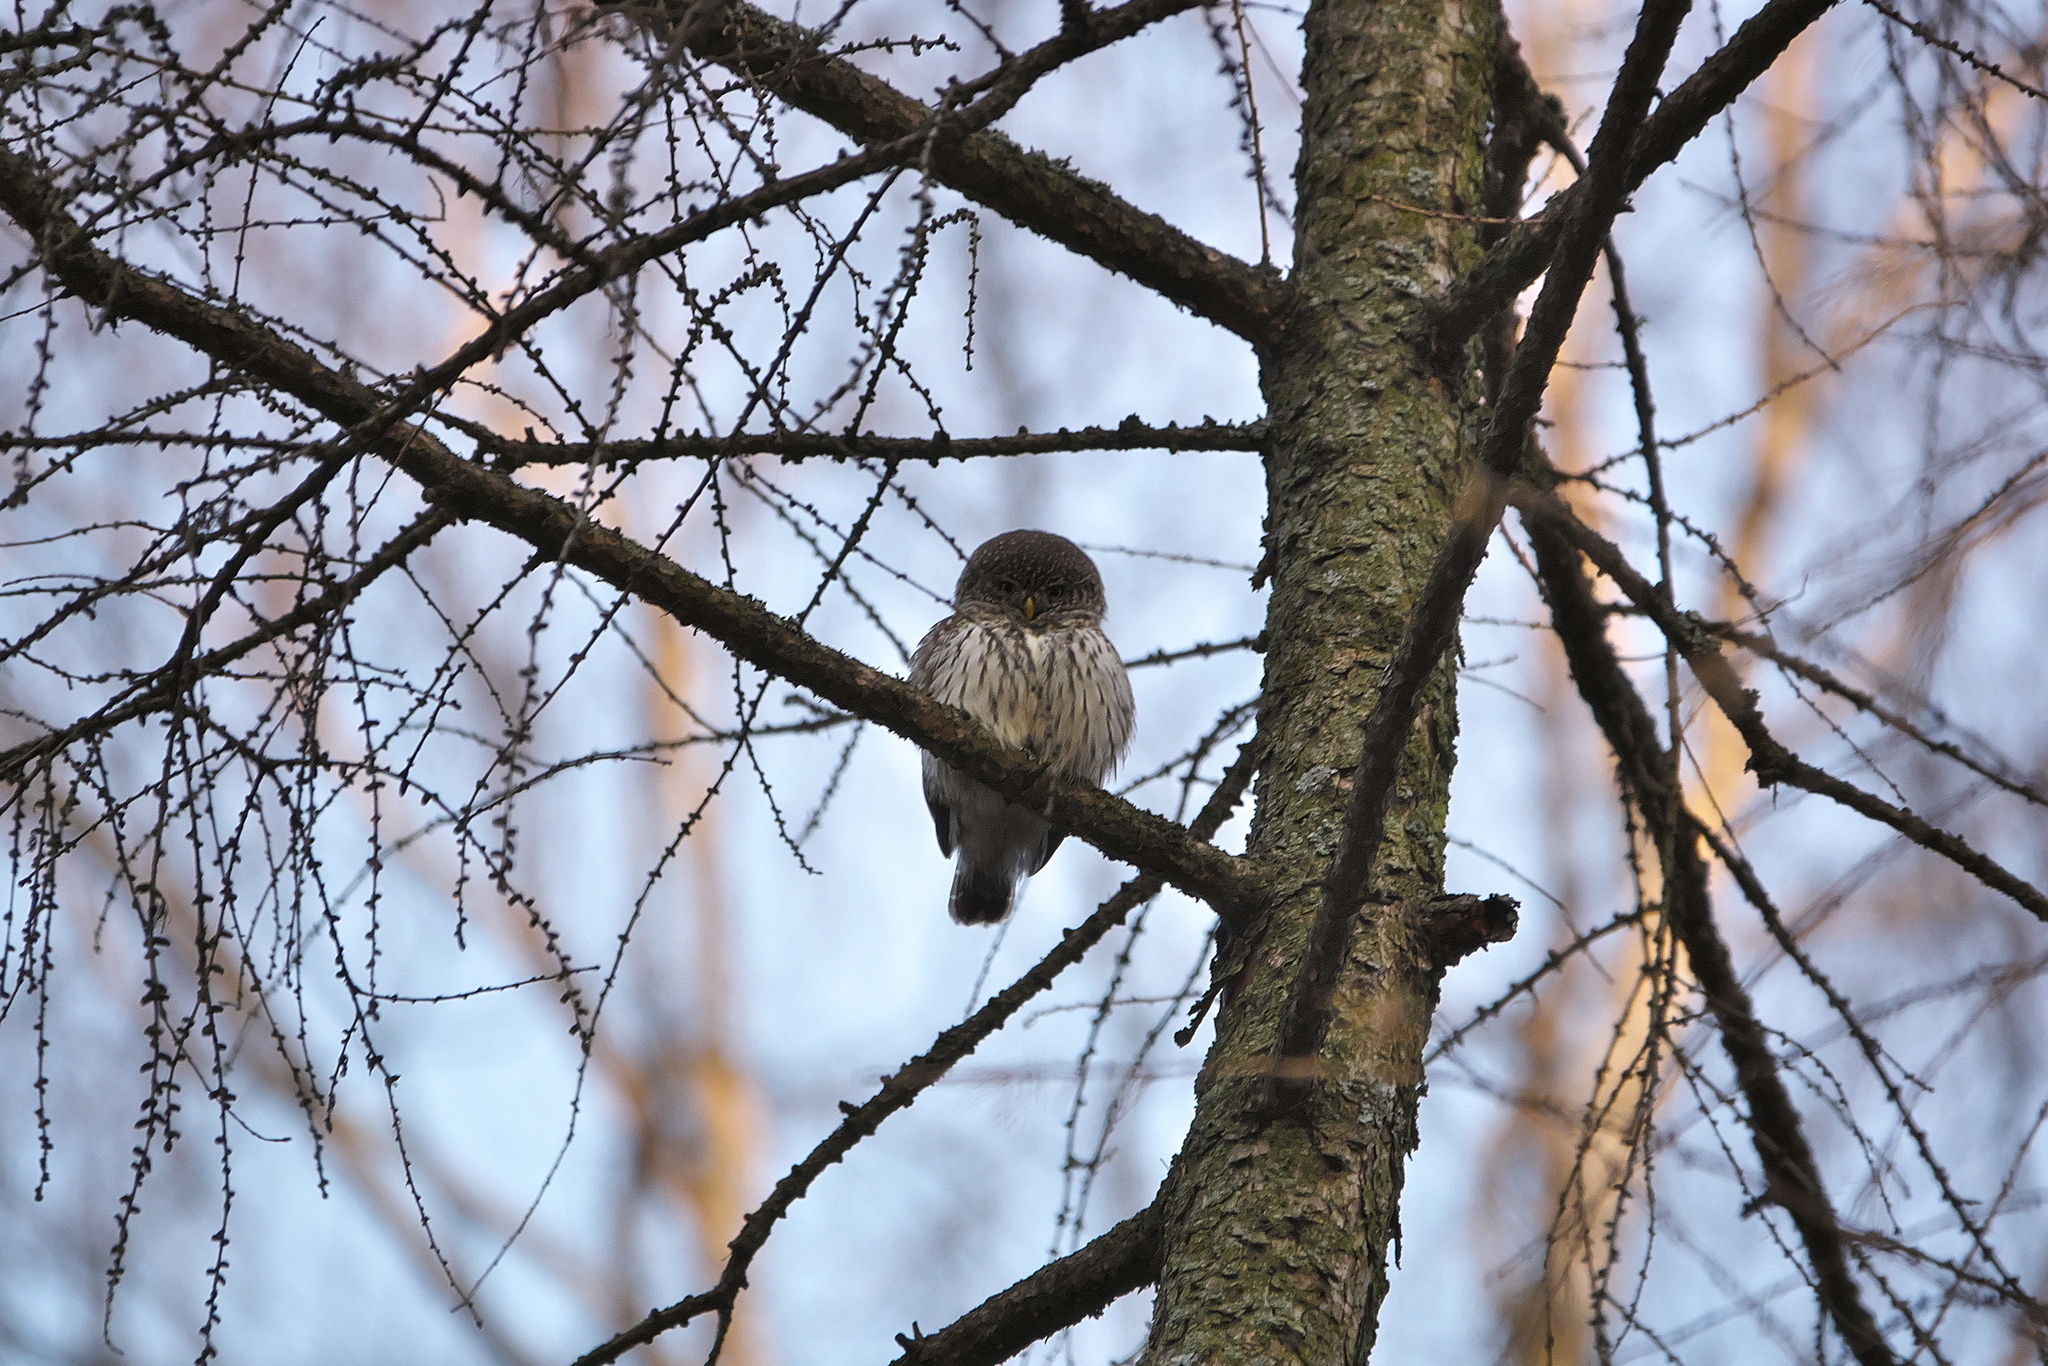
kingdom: Animalia
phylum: Chordata
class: Aves
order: Strigiformes
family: Strigidae
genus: Glaucidium
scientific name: Glaucidium passerinum
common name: Eurasian pygmy owl
